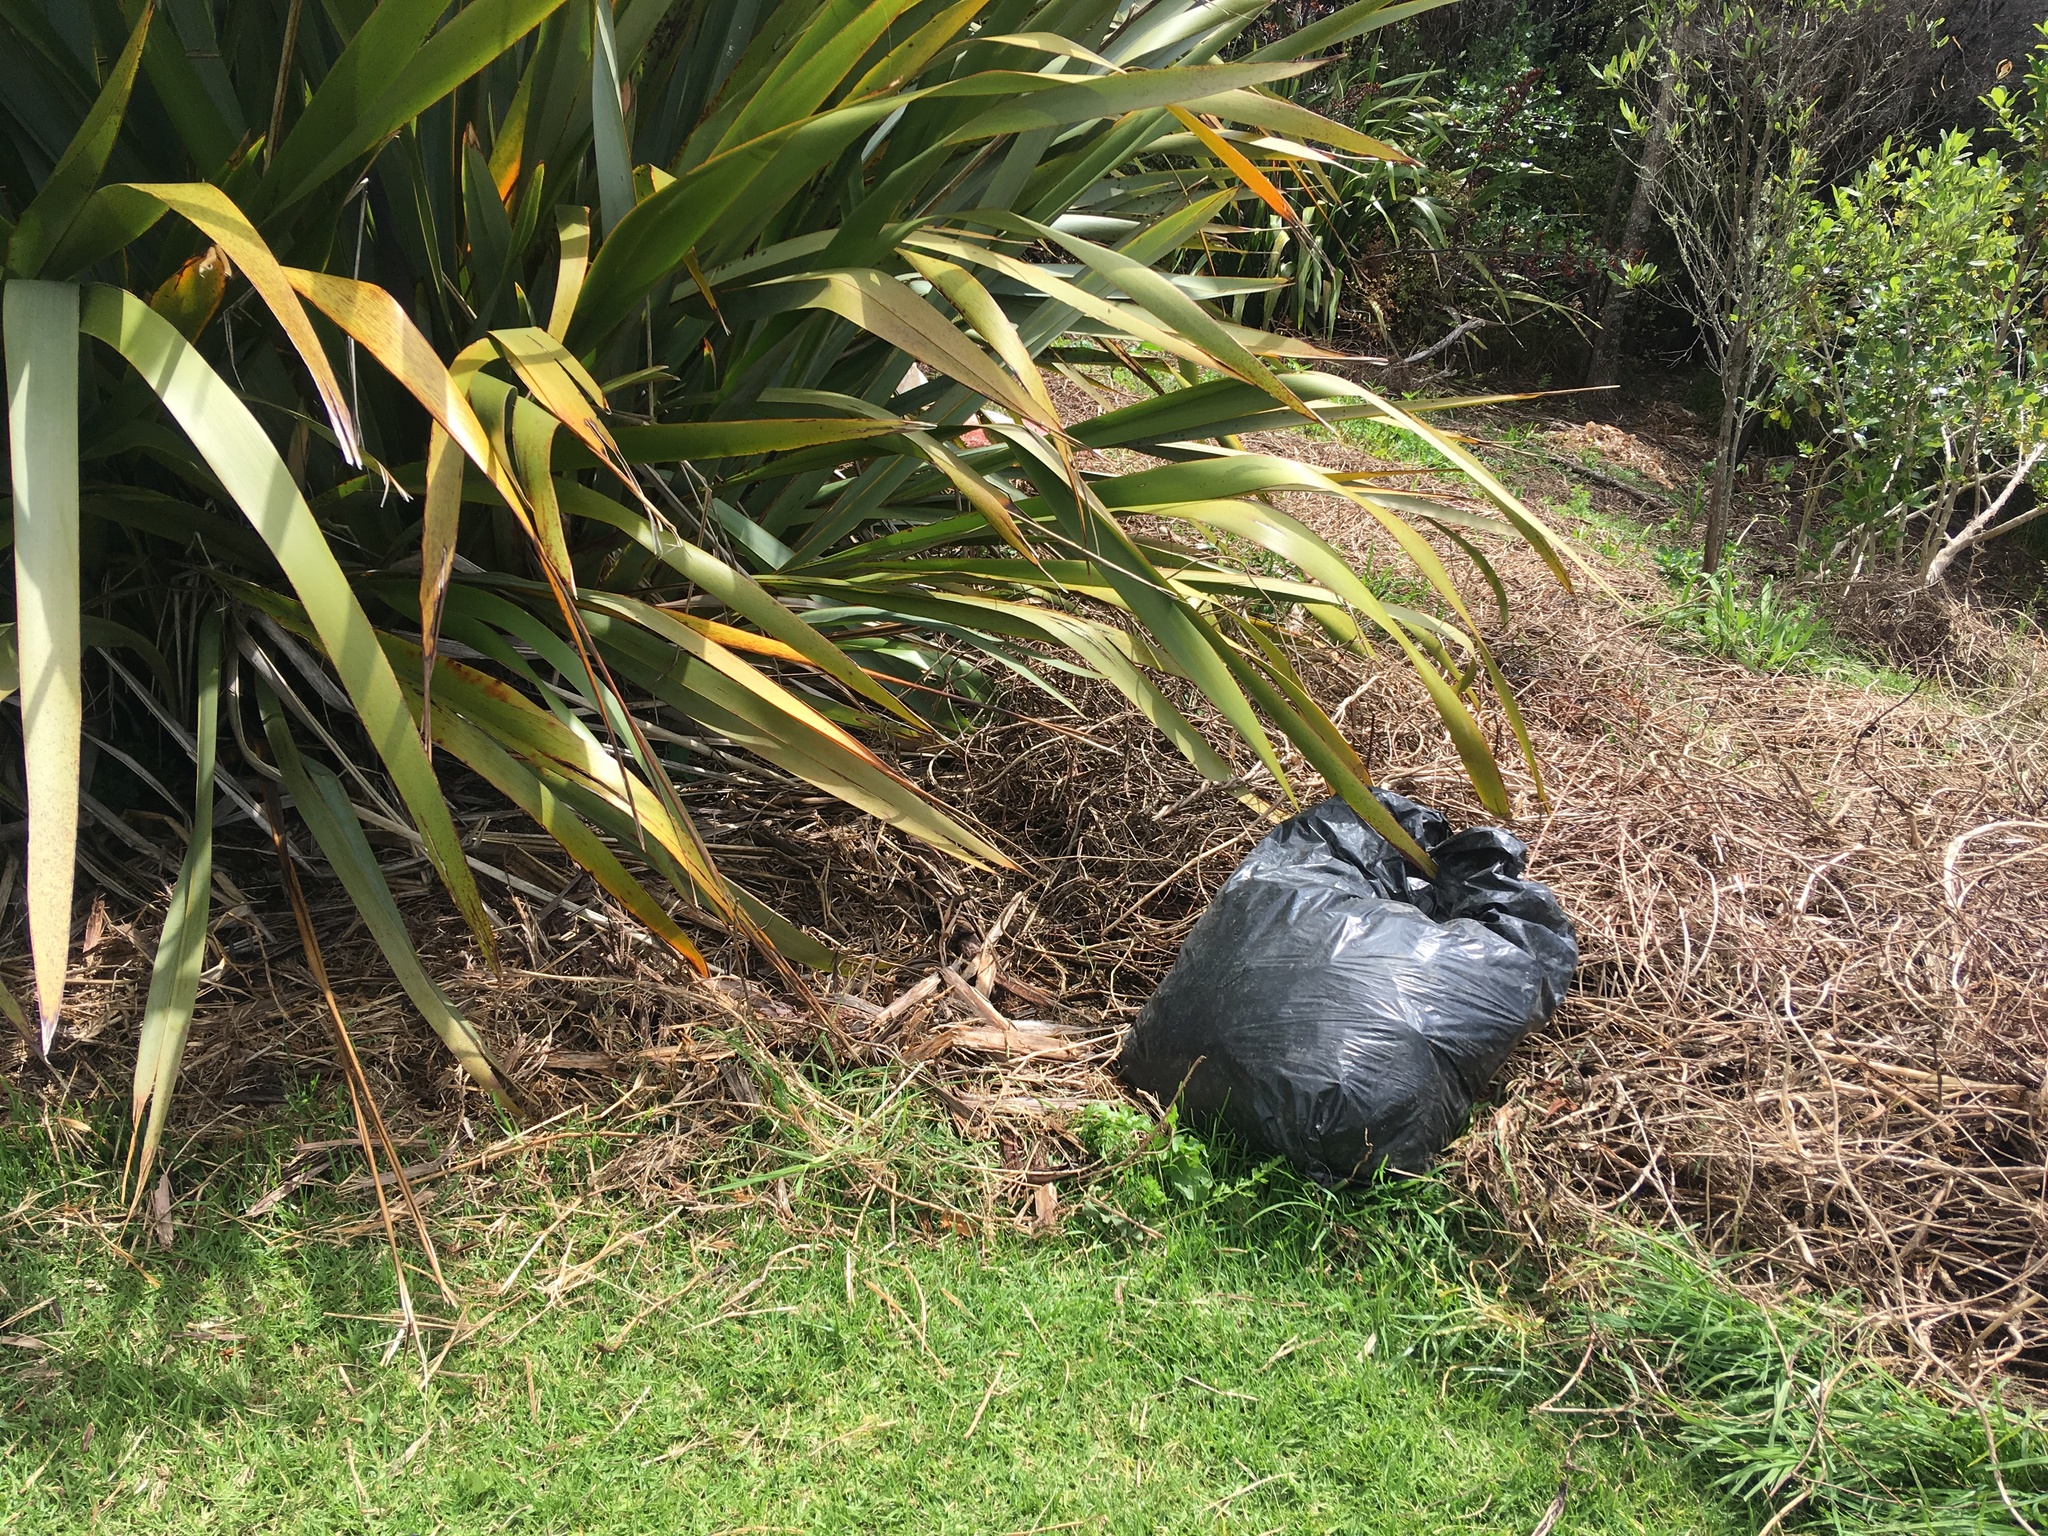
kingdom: Plantae
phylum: Tracheophyta
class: Liliopsida
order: Poales
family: Poaceae
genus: Cenchrus
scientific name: Cenchrus clandestinus
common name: Kikuyugrass
